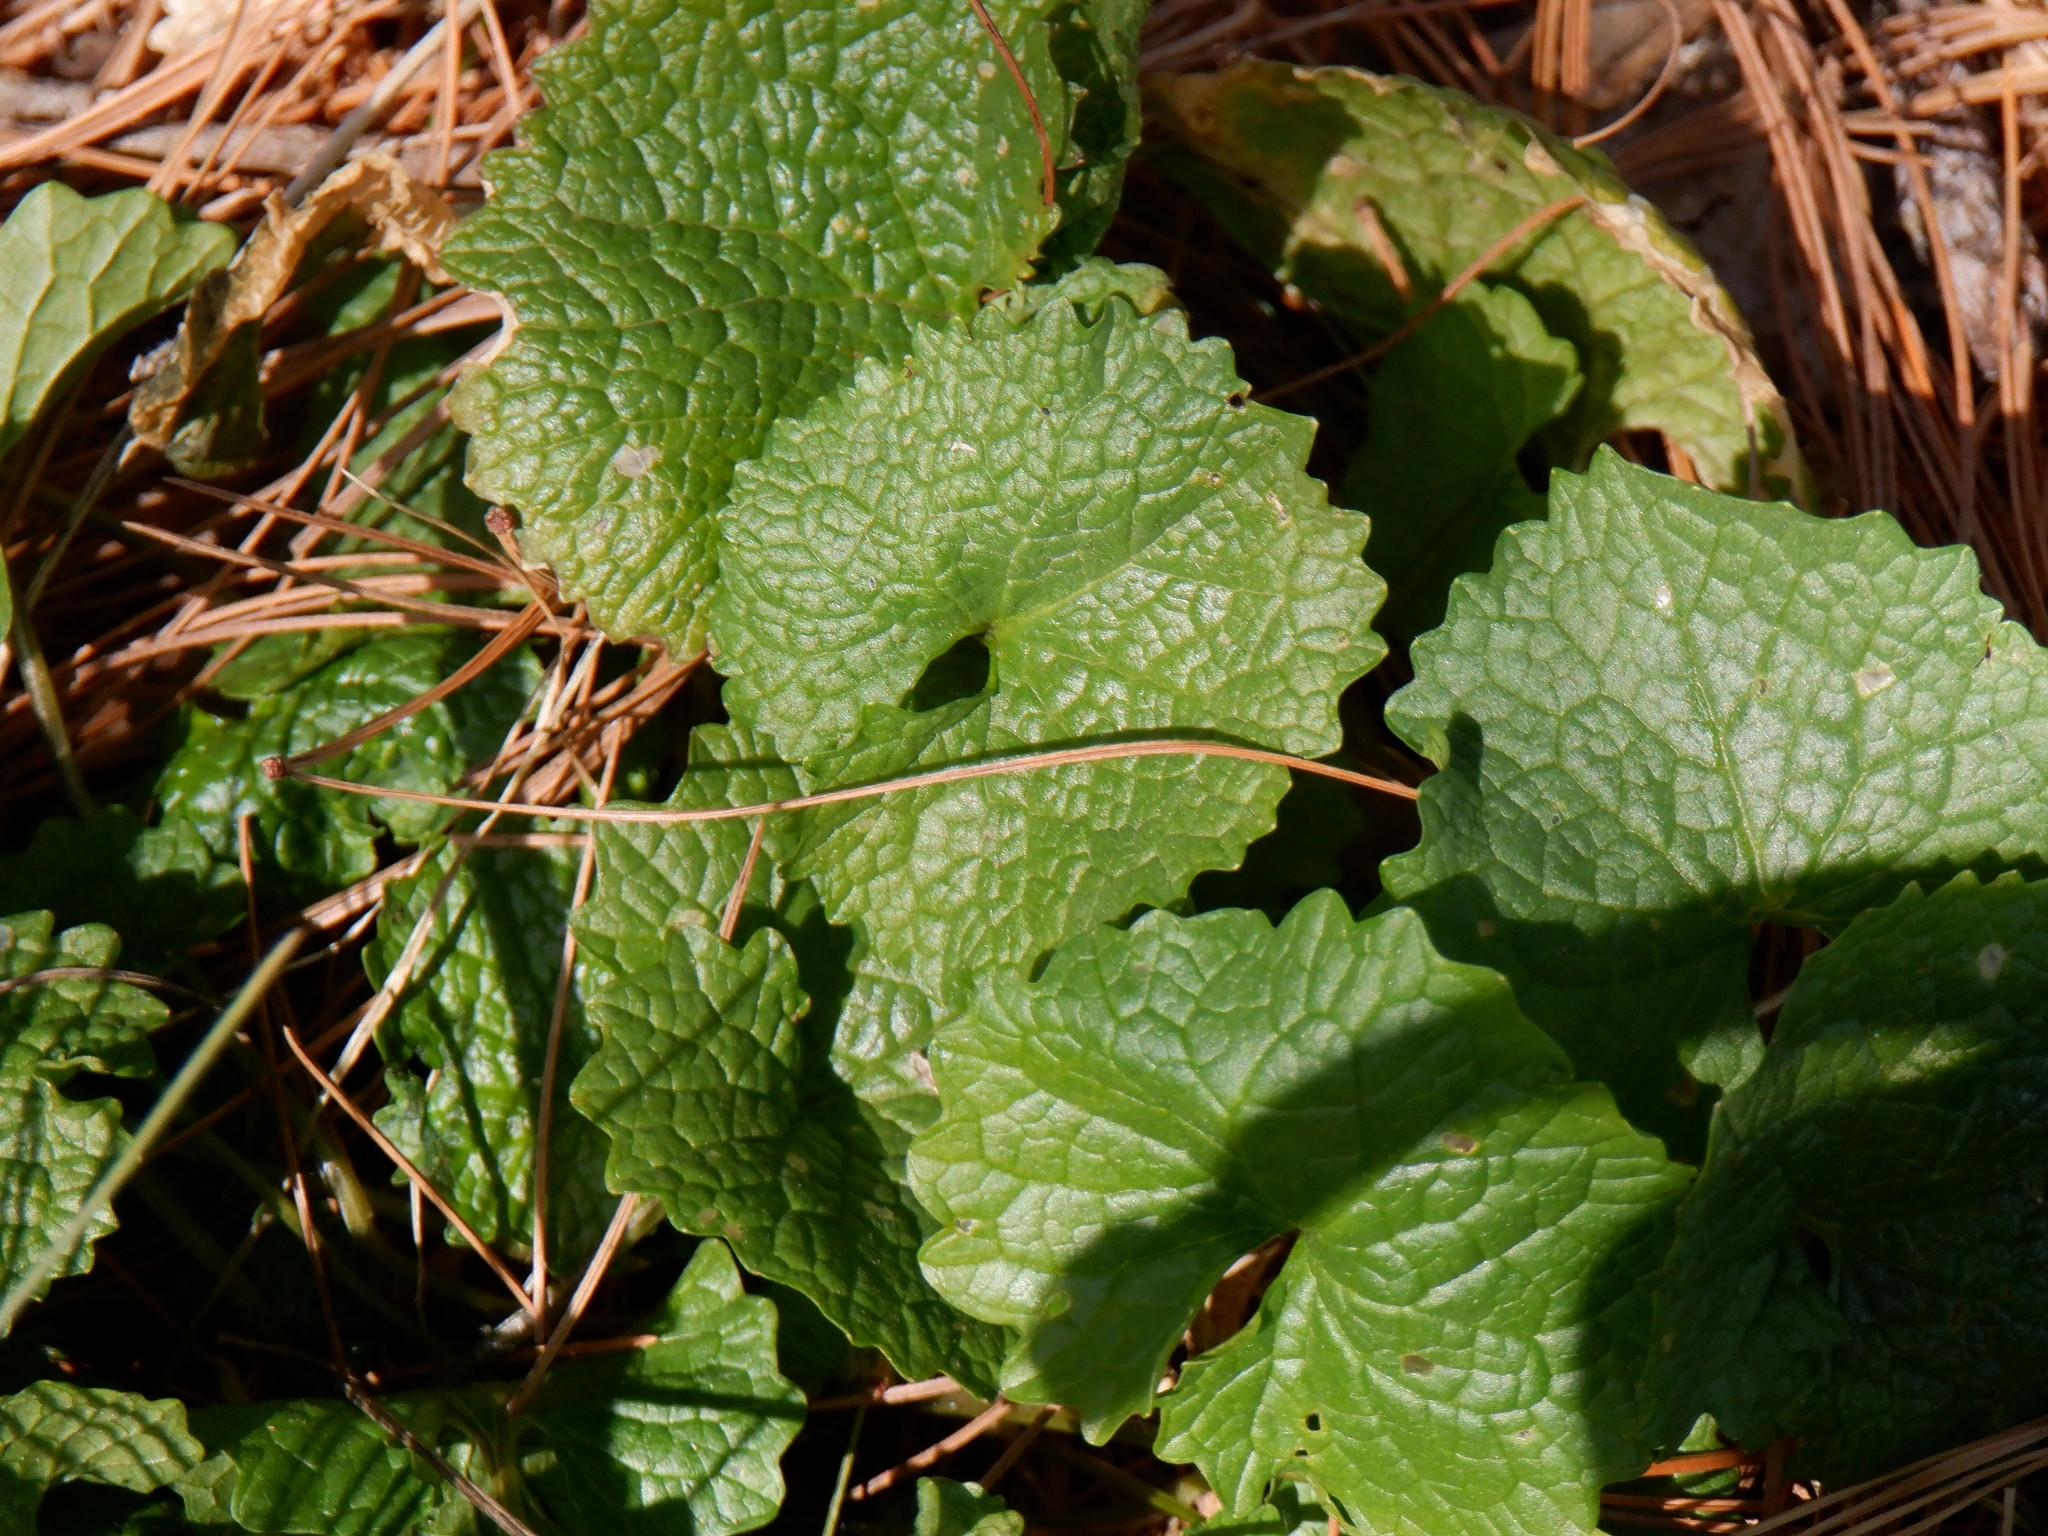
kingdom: Plantae
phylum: Tracheophyta
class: Magnoliopsida
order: Brassicales
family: Brassicaceae
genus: Alliaria
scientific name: Alliaria petiolata
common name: Garlic mustard
